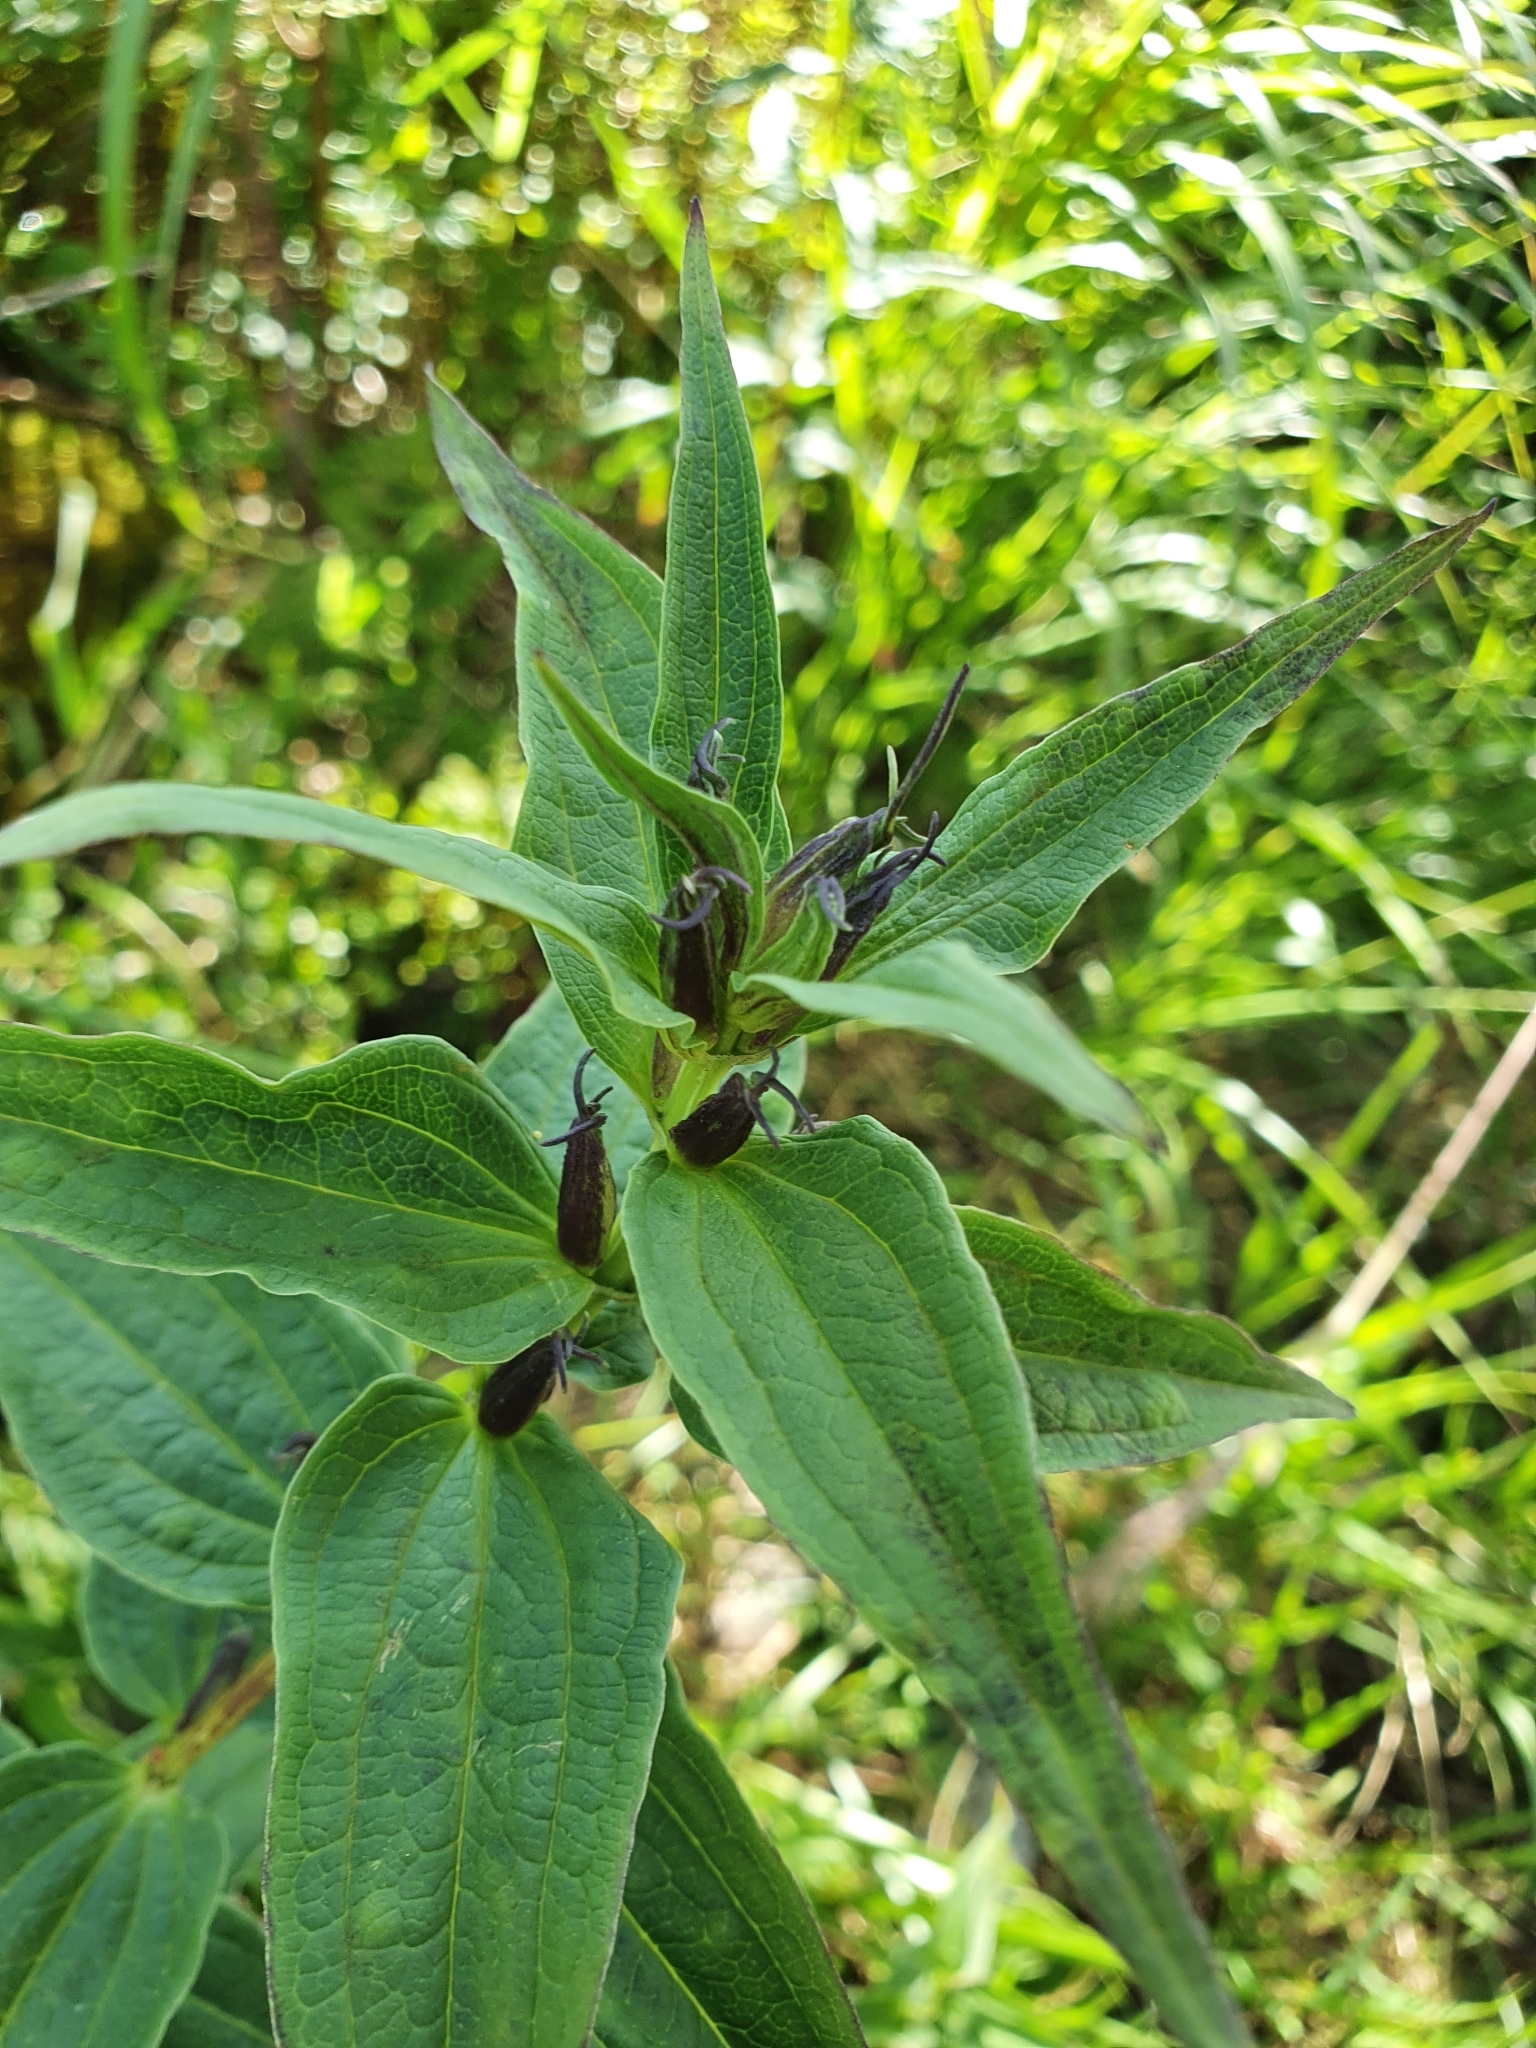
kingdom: Plantae
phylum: Tracheophyta
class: Magnoliopsida
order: Gentianales
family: Gentianaceae
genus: Gentiana
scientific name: Gentiana asclepiadea
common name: Willow gentian
